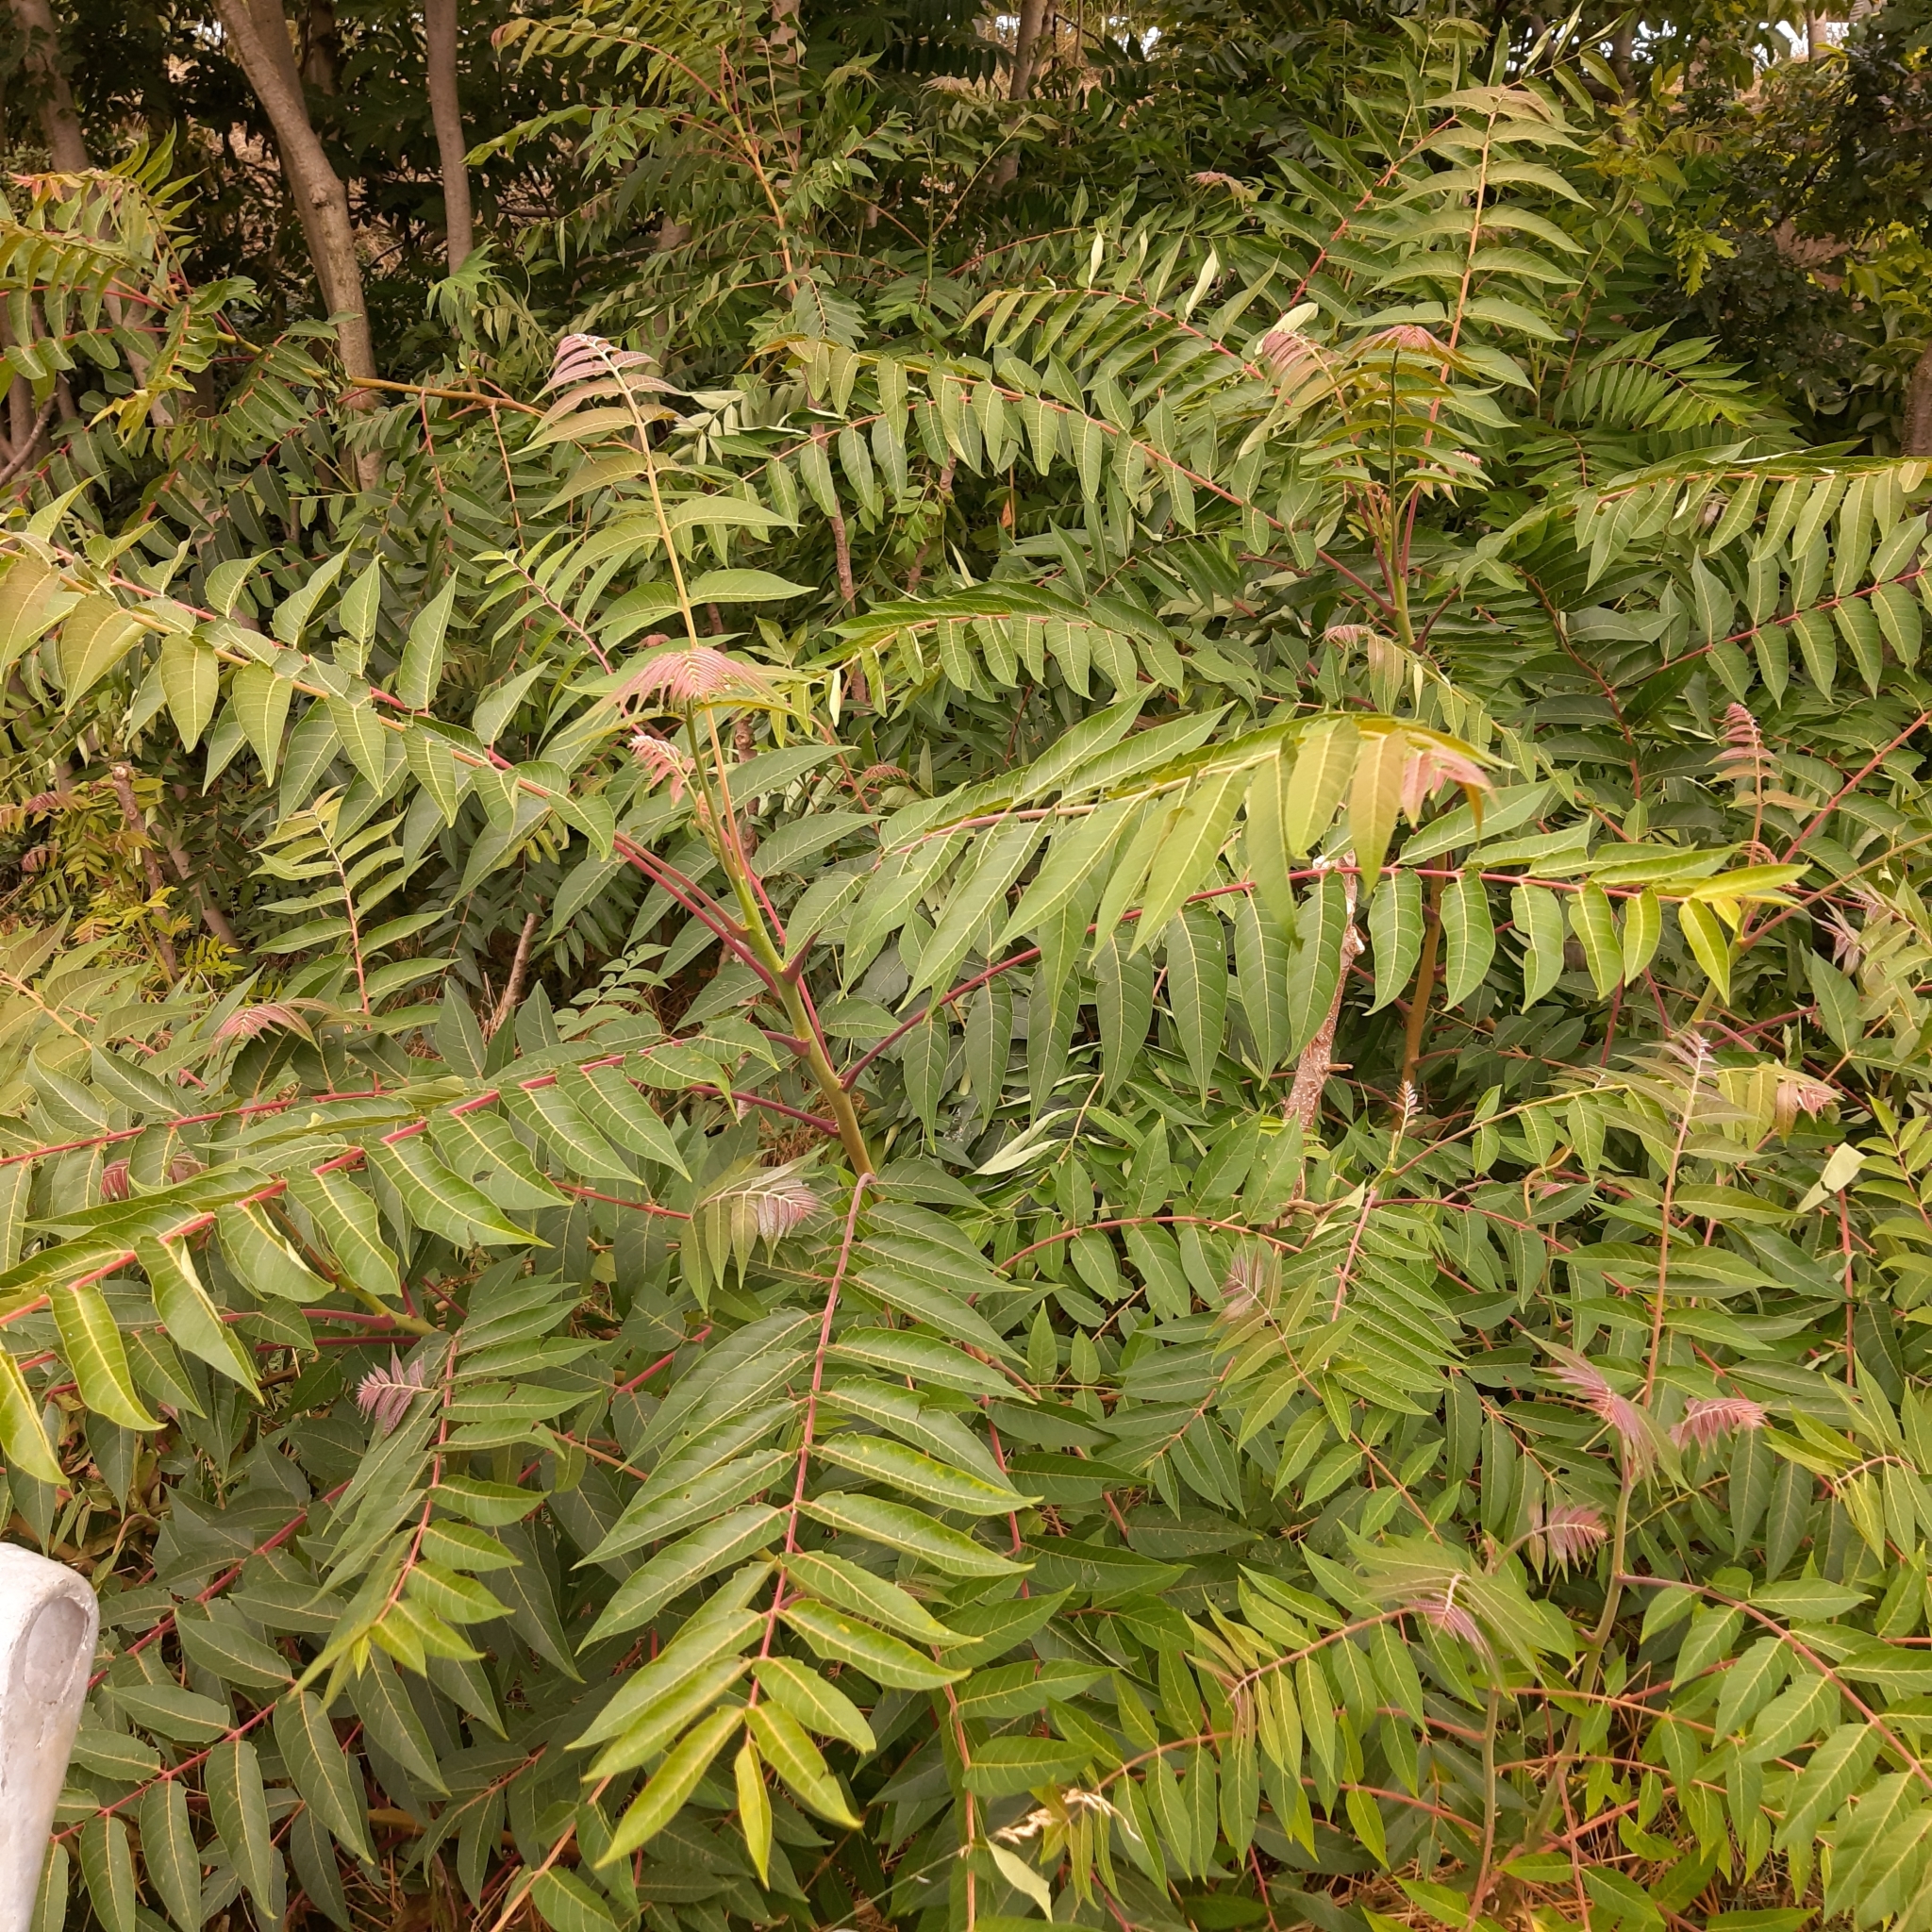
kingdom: Plantae
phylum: Tracheophyta
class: Magnoliopsida
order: Sapindales
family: Simaroubaceae
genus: Ailanthus
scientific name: Ailanthus altissima
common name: Tree-of-heaven
